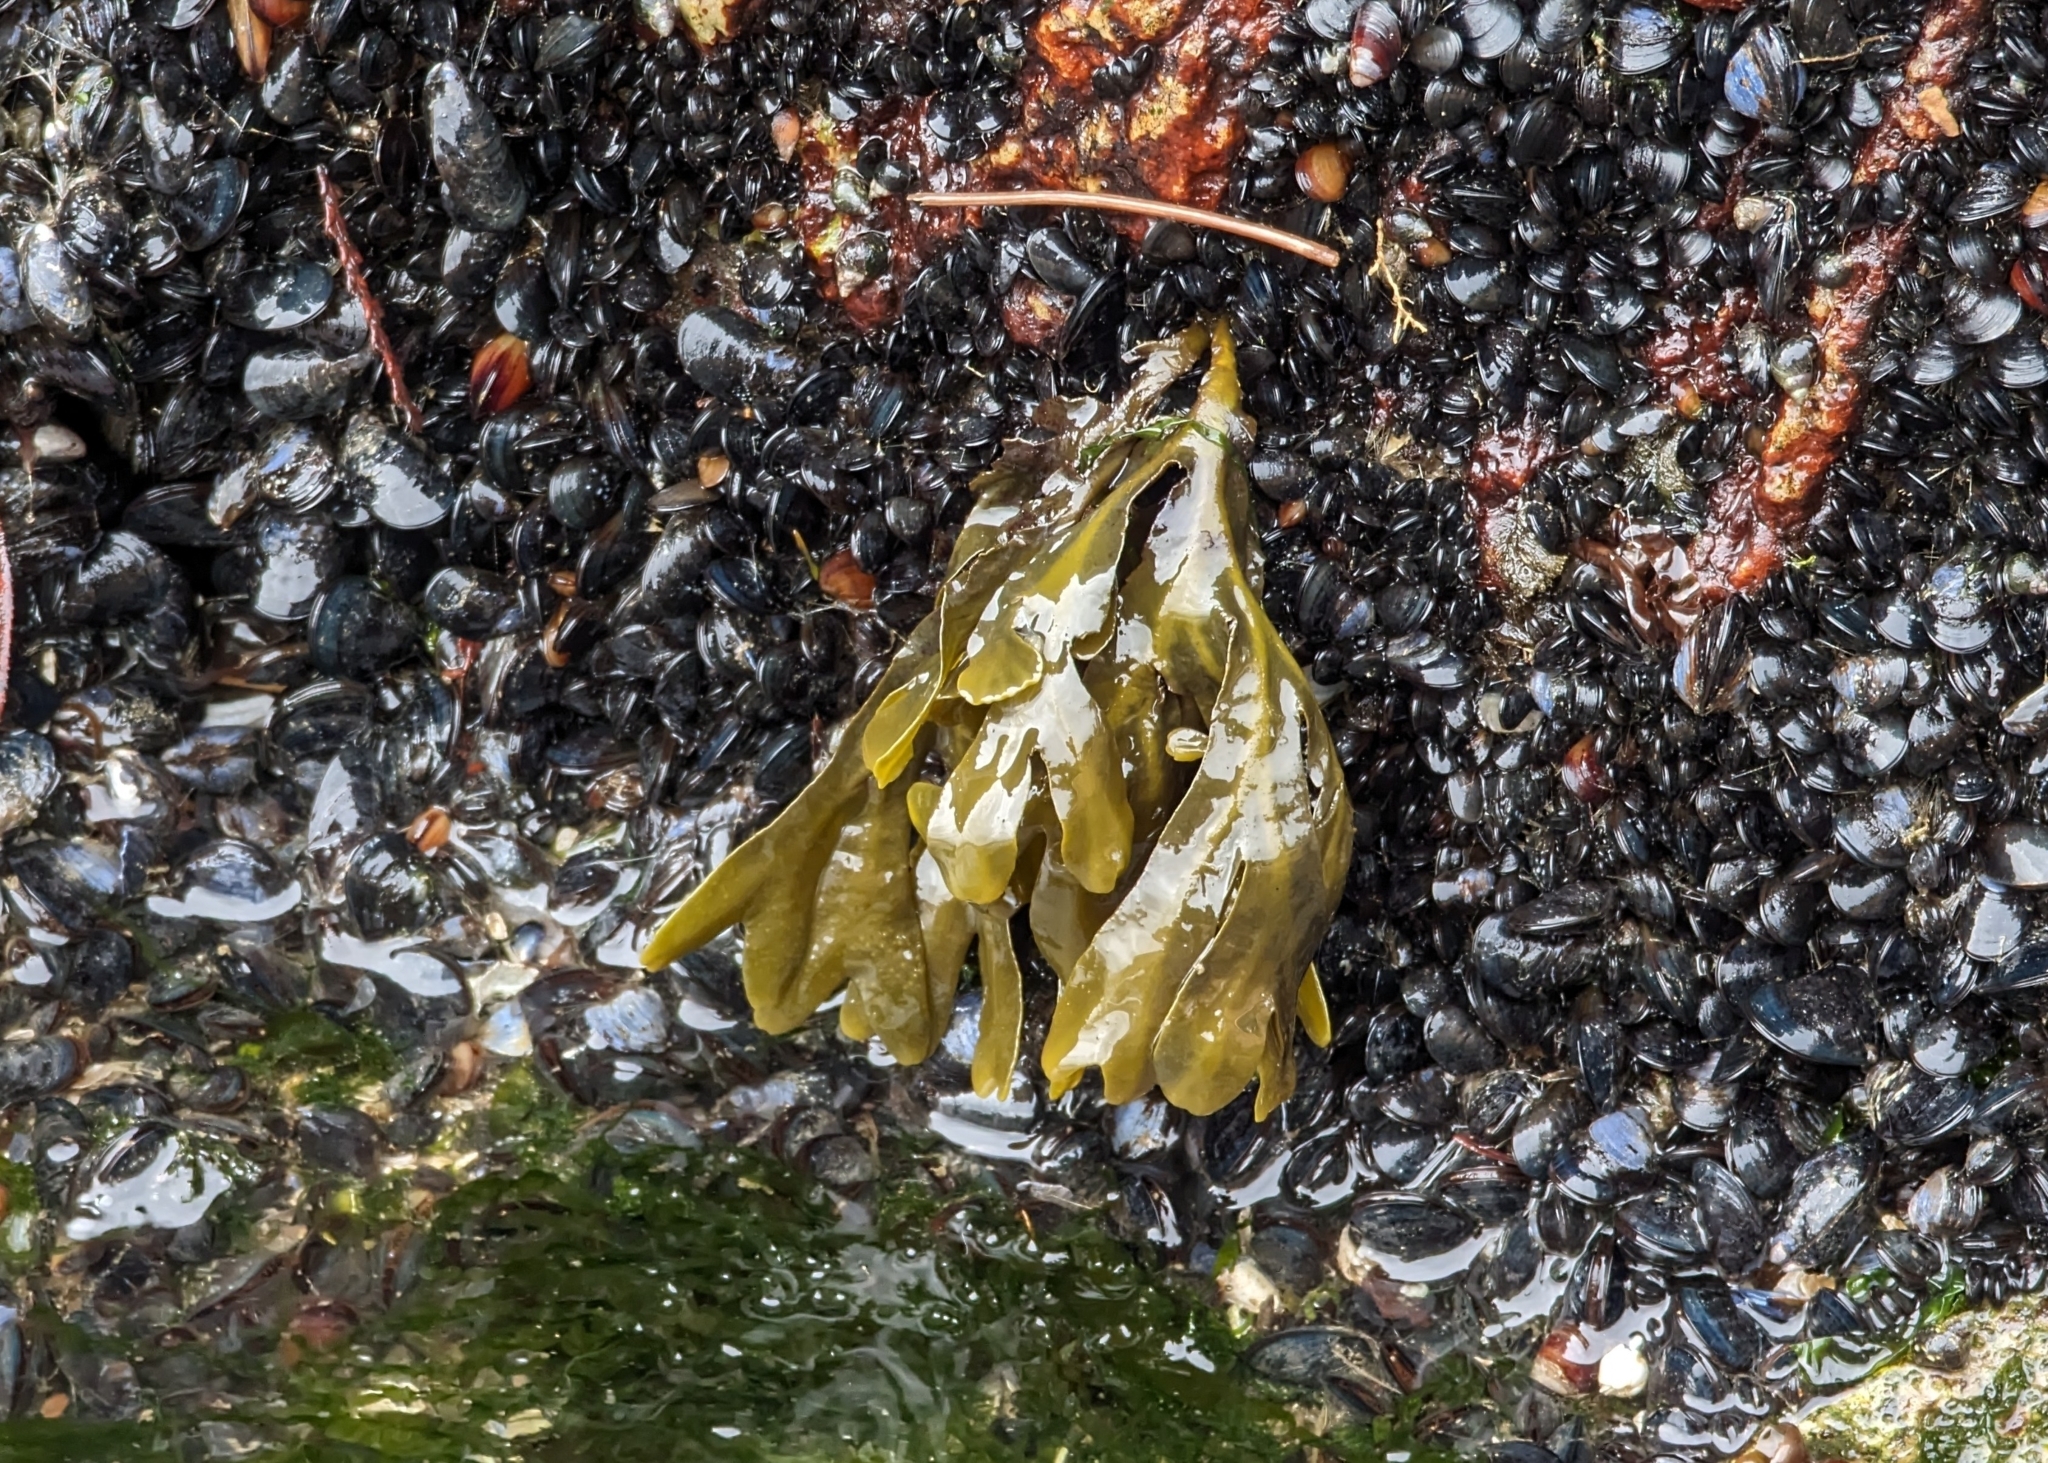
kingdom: Chromista
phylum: Ochrophyta
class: Phaeophyceae
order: Fucales
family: Fucaceae
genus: Fucus
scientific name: Fucus distichus
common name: Rockweed
